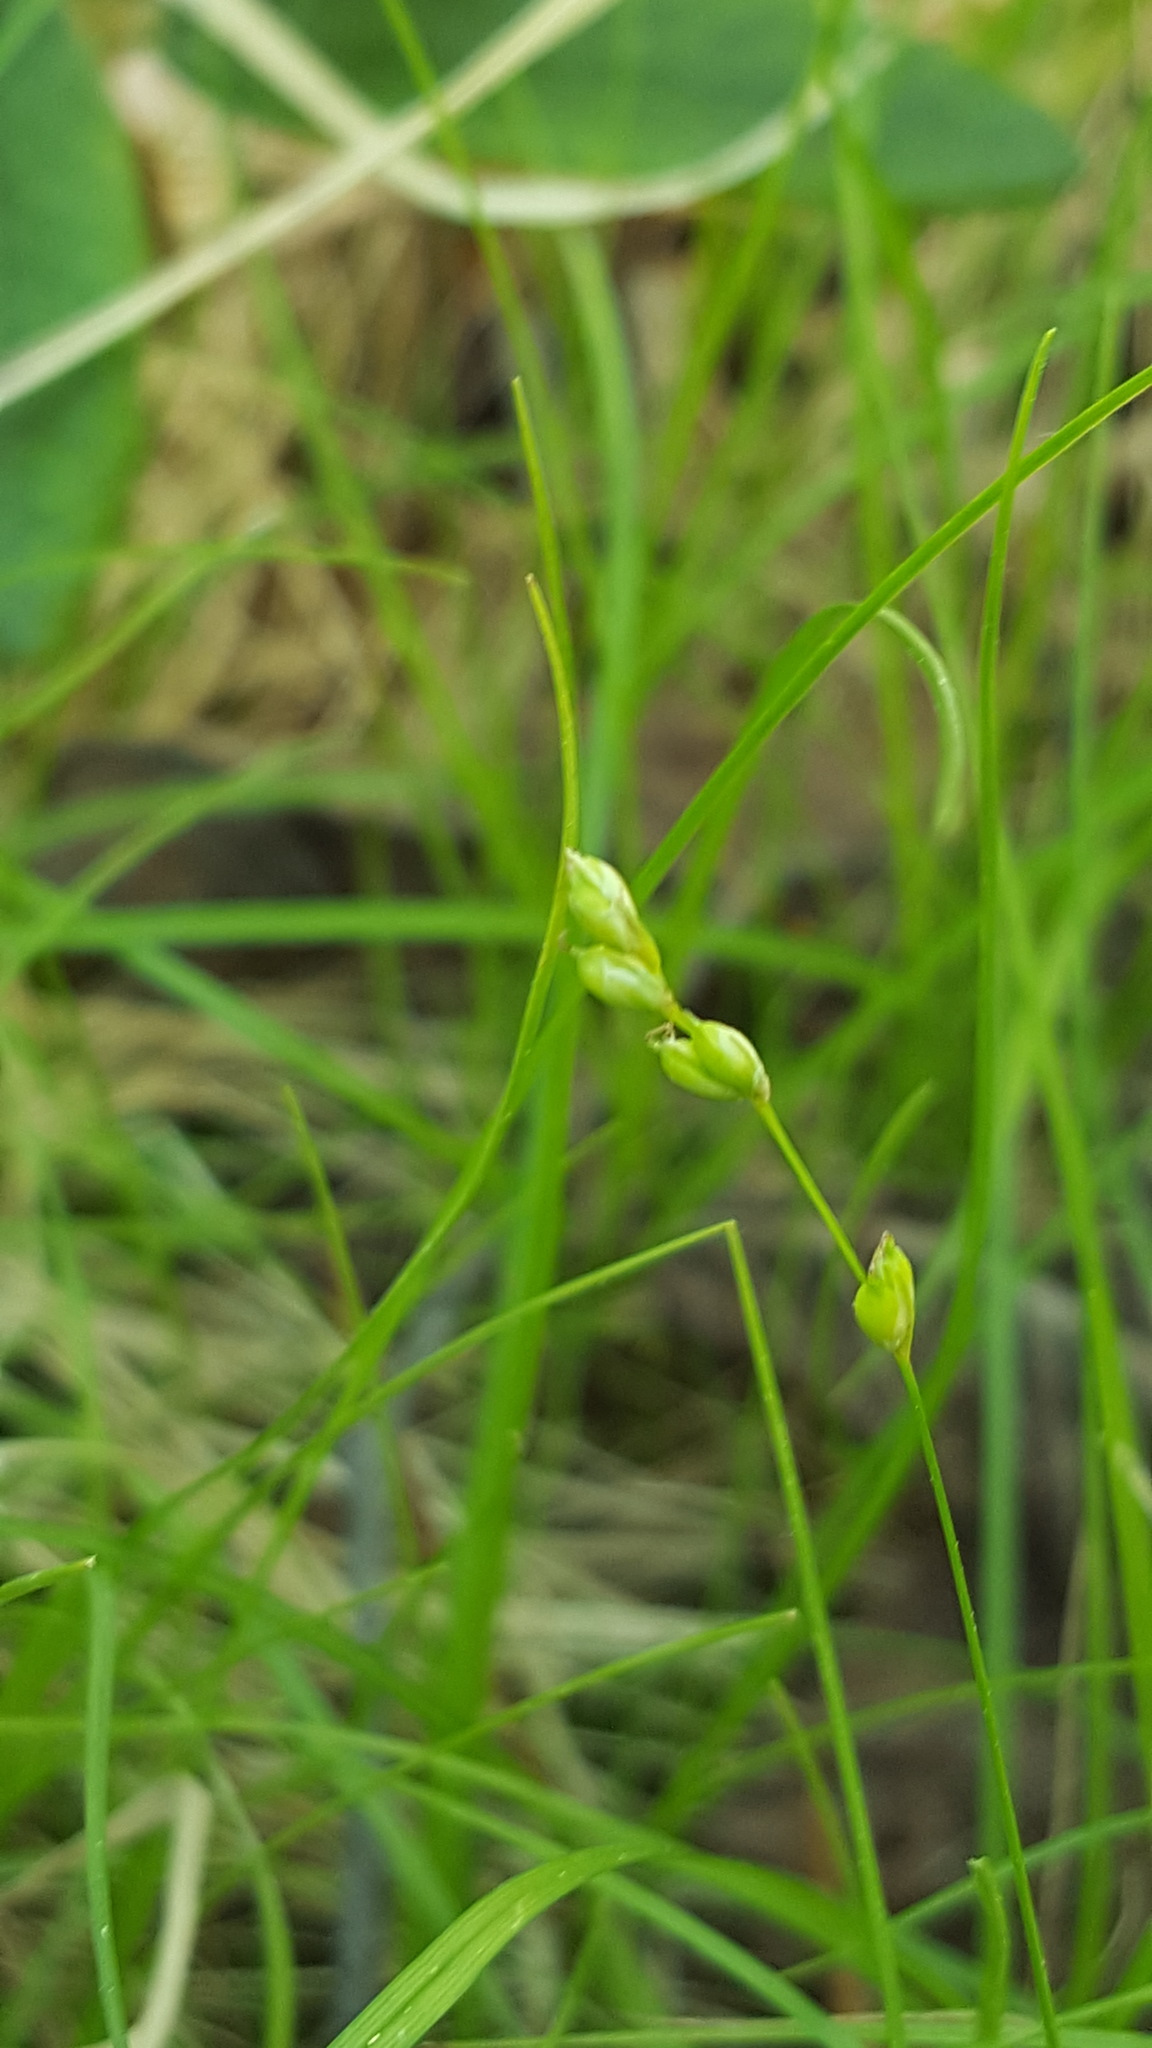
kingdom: Plantae
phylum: Tracheophyta
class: Liliopsida
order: Poales
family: Cyperaceae
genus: Carex
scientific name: Carex disperma
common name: Short-leaved sedge
